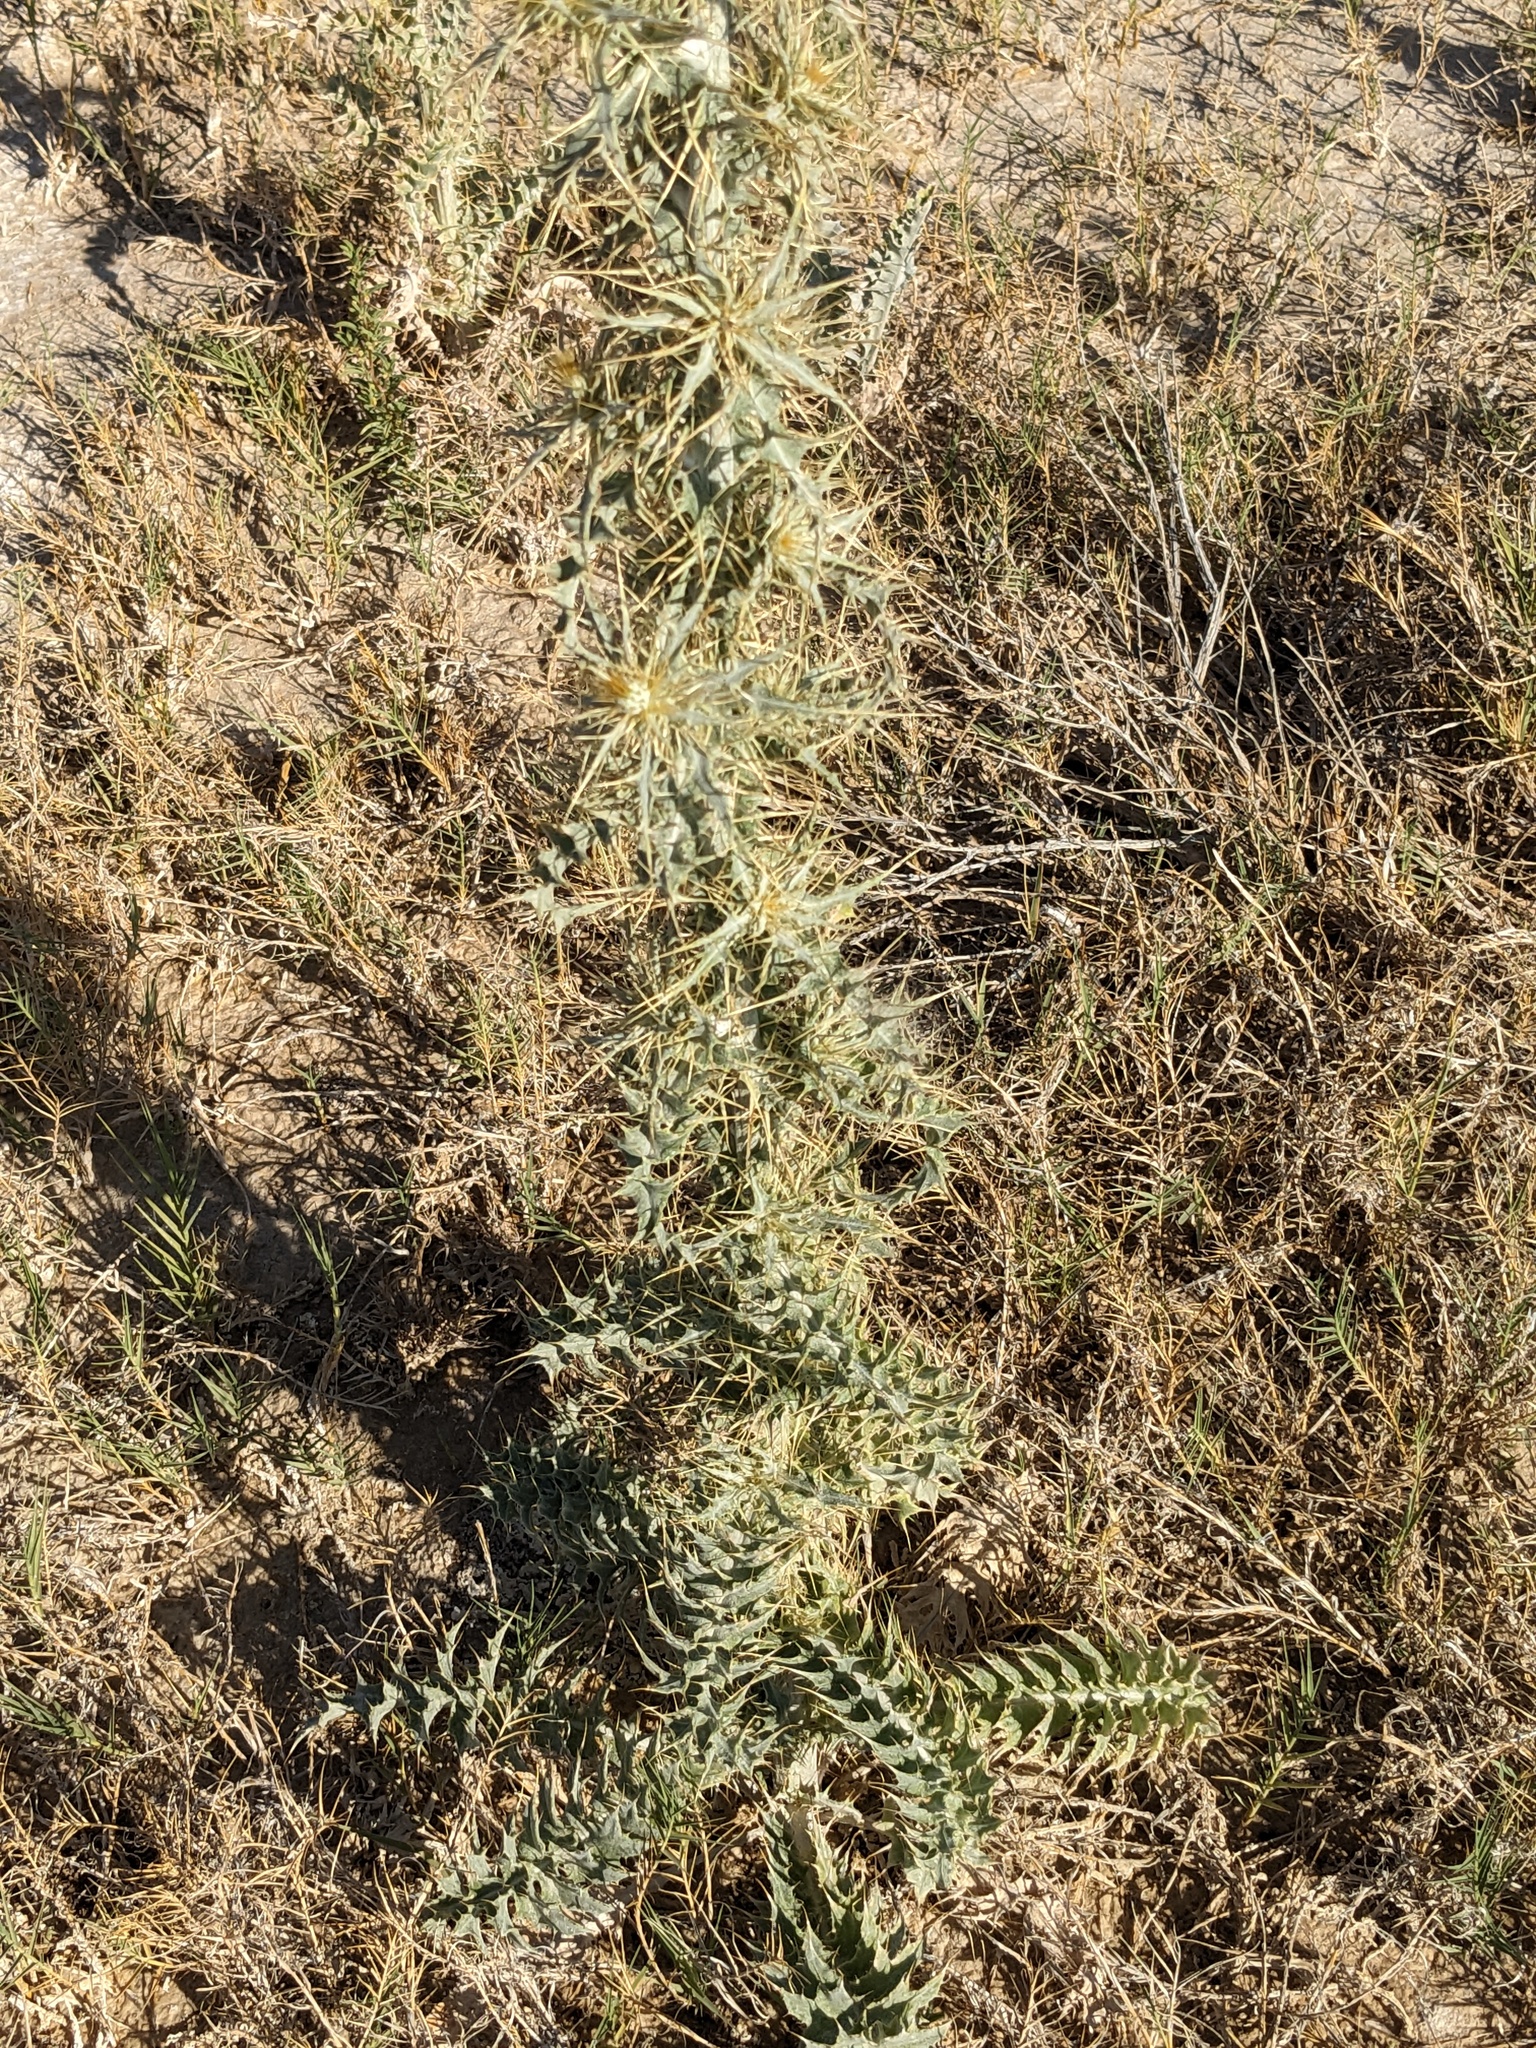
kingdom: Plantae
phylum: Tracheophyta
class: Magnoliopsida
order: Asterales
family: Asteraceae
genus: Cirsium
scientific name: Cirsium mohavense
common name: Mojave thistle
